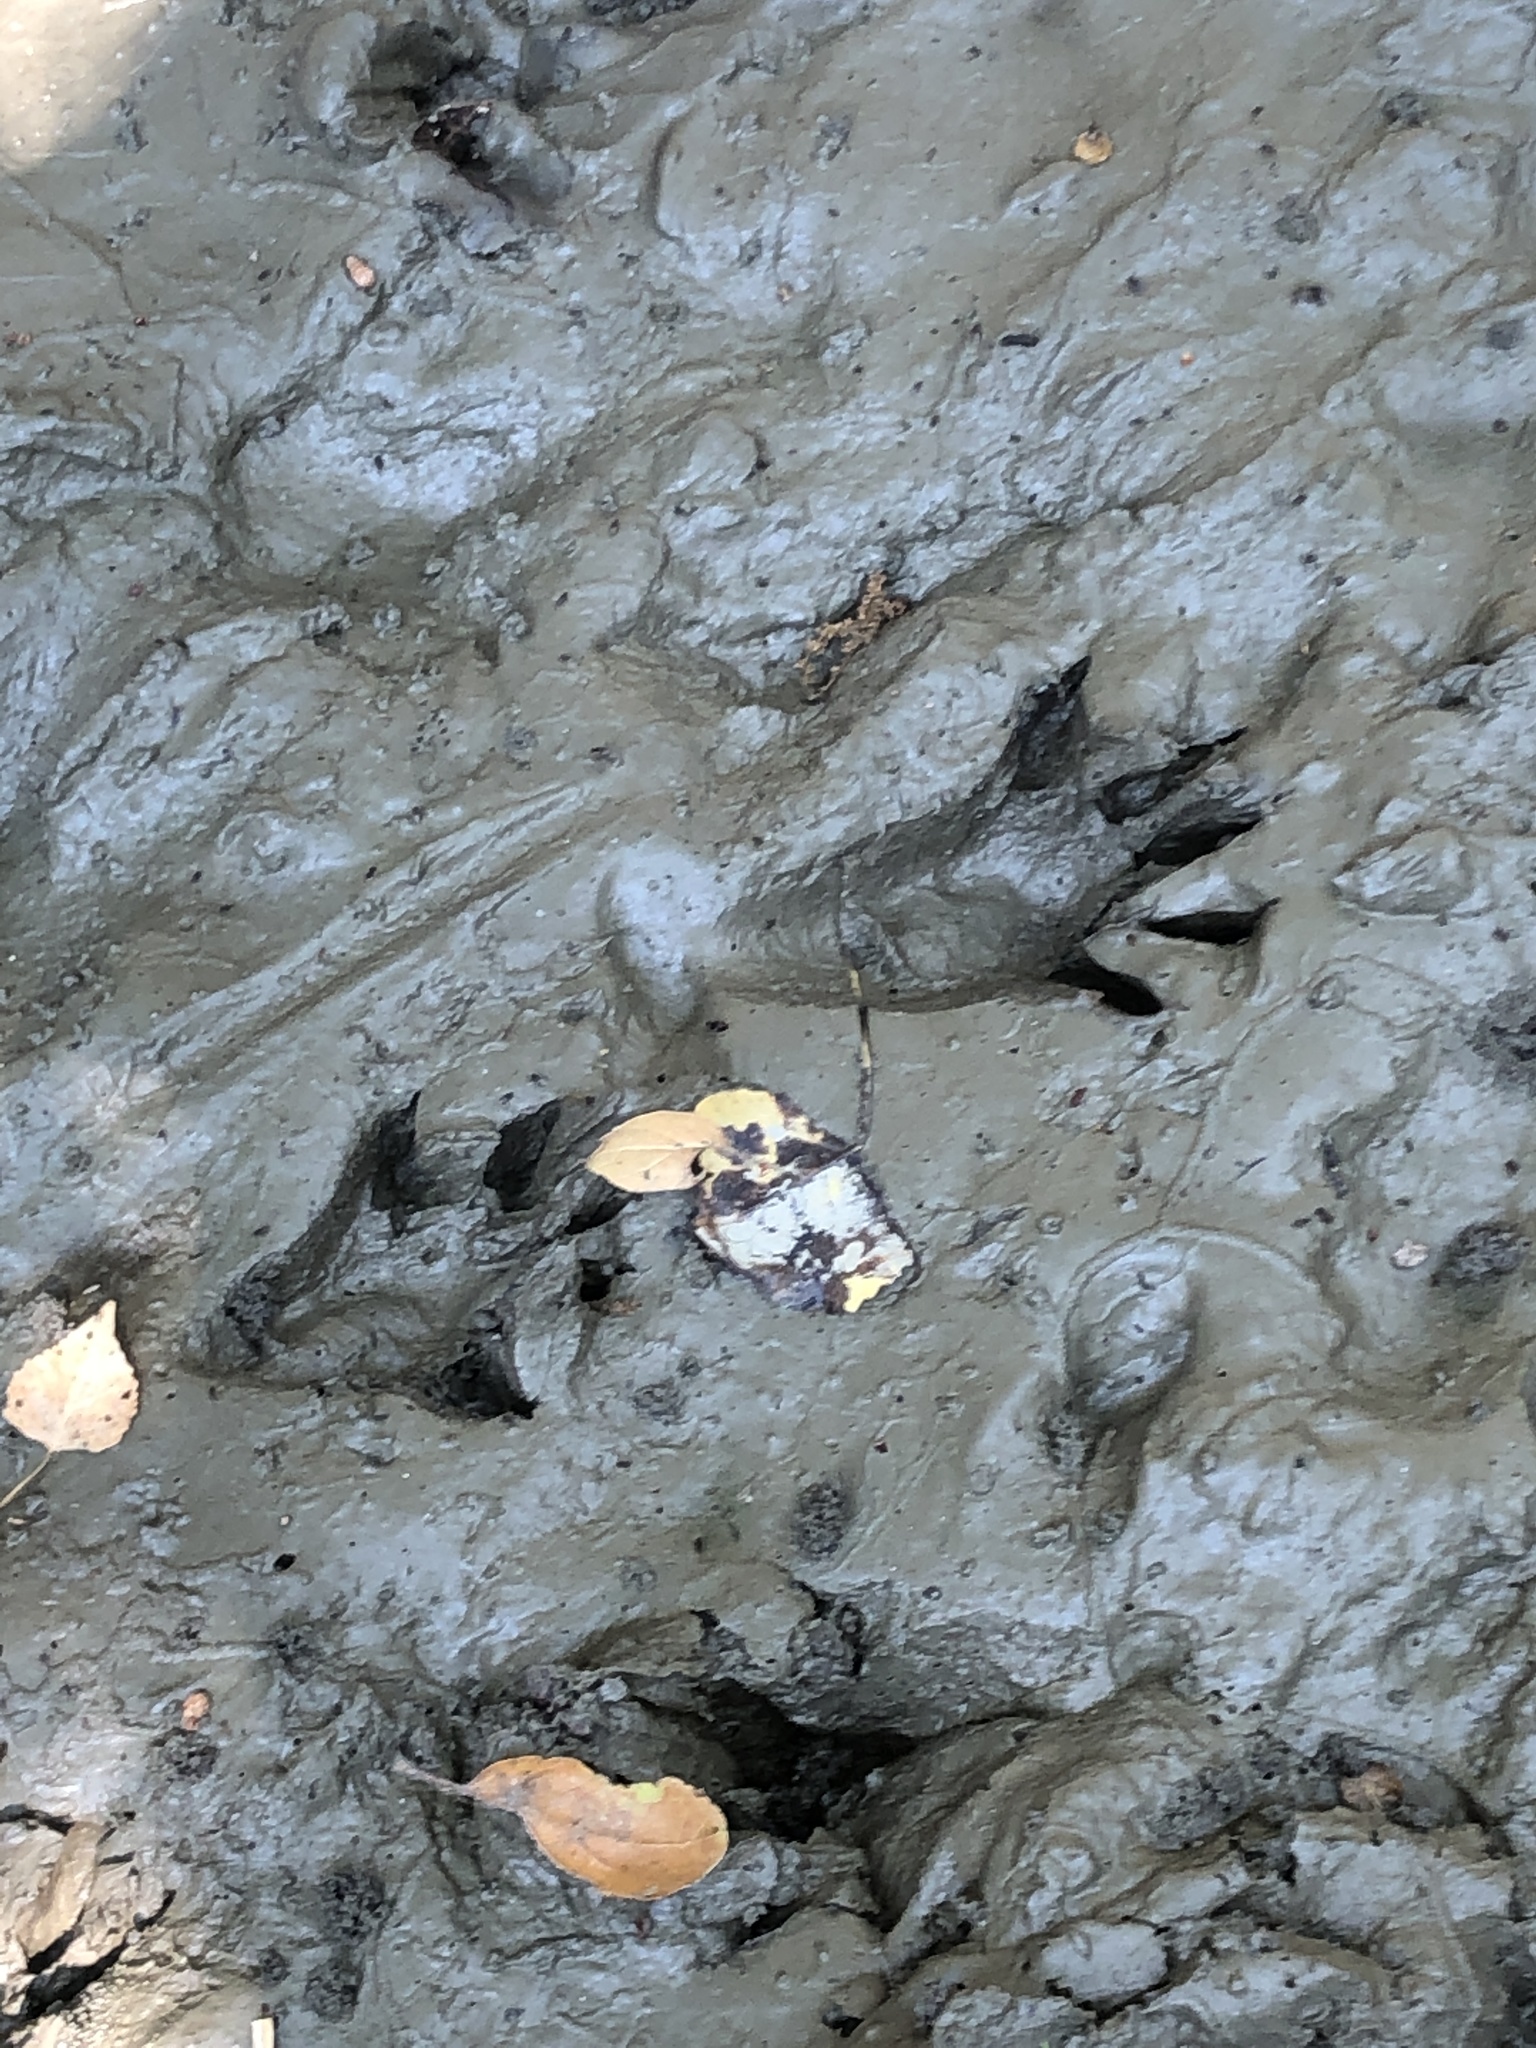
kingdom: Animalia
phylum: Chordata
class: Mammalia
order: Carnivora
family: Procyonidae
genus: Procyon
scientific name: Procyon lotor
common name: Raccoon
